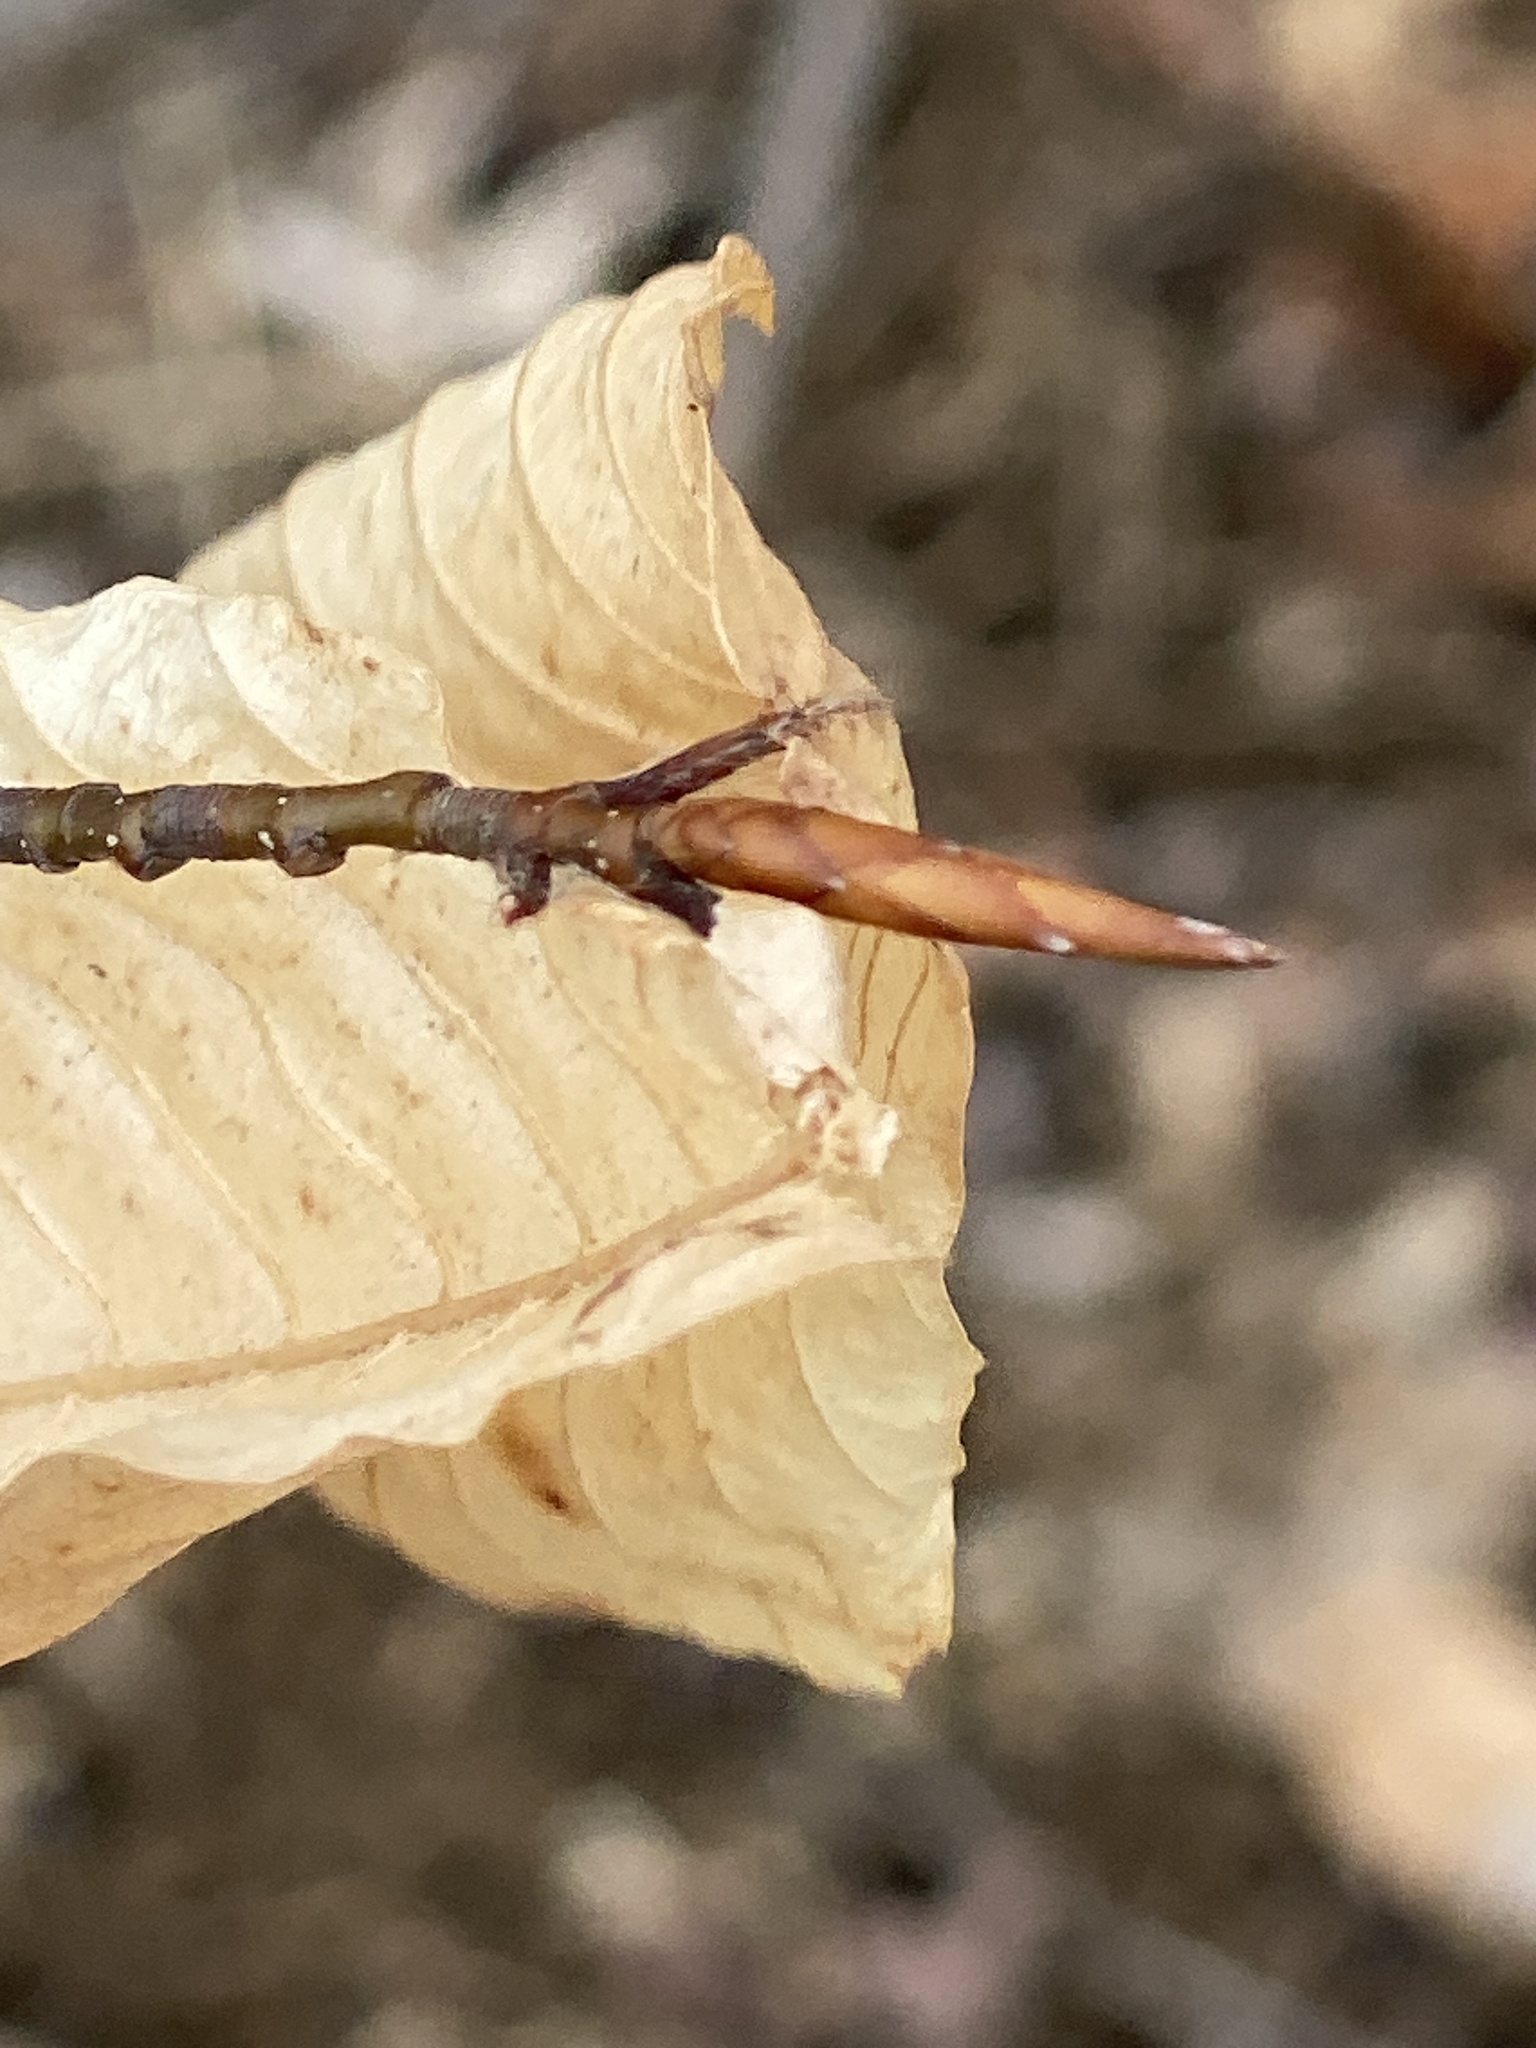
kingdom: Plantae
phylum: Tracheophyta
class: Magnoliopsida
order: Fagales
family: Fagaceae
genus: Fagus
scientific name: Fagus grandifolia
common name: American beech
